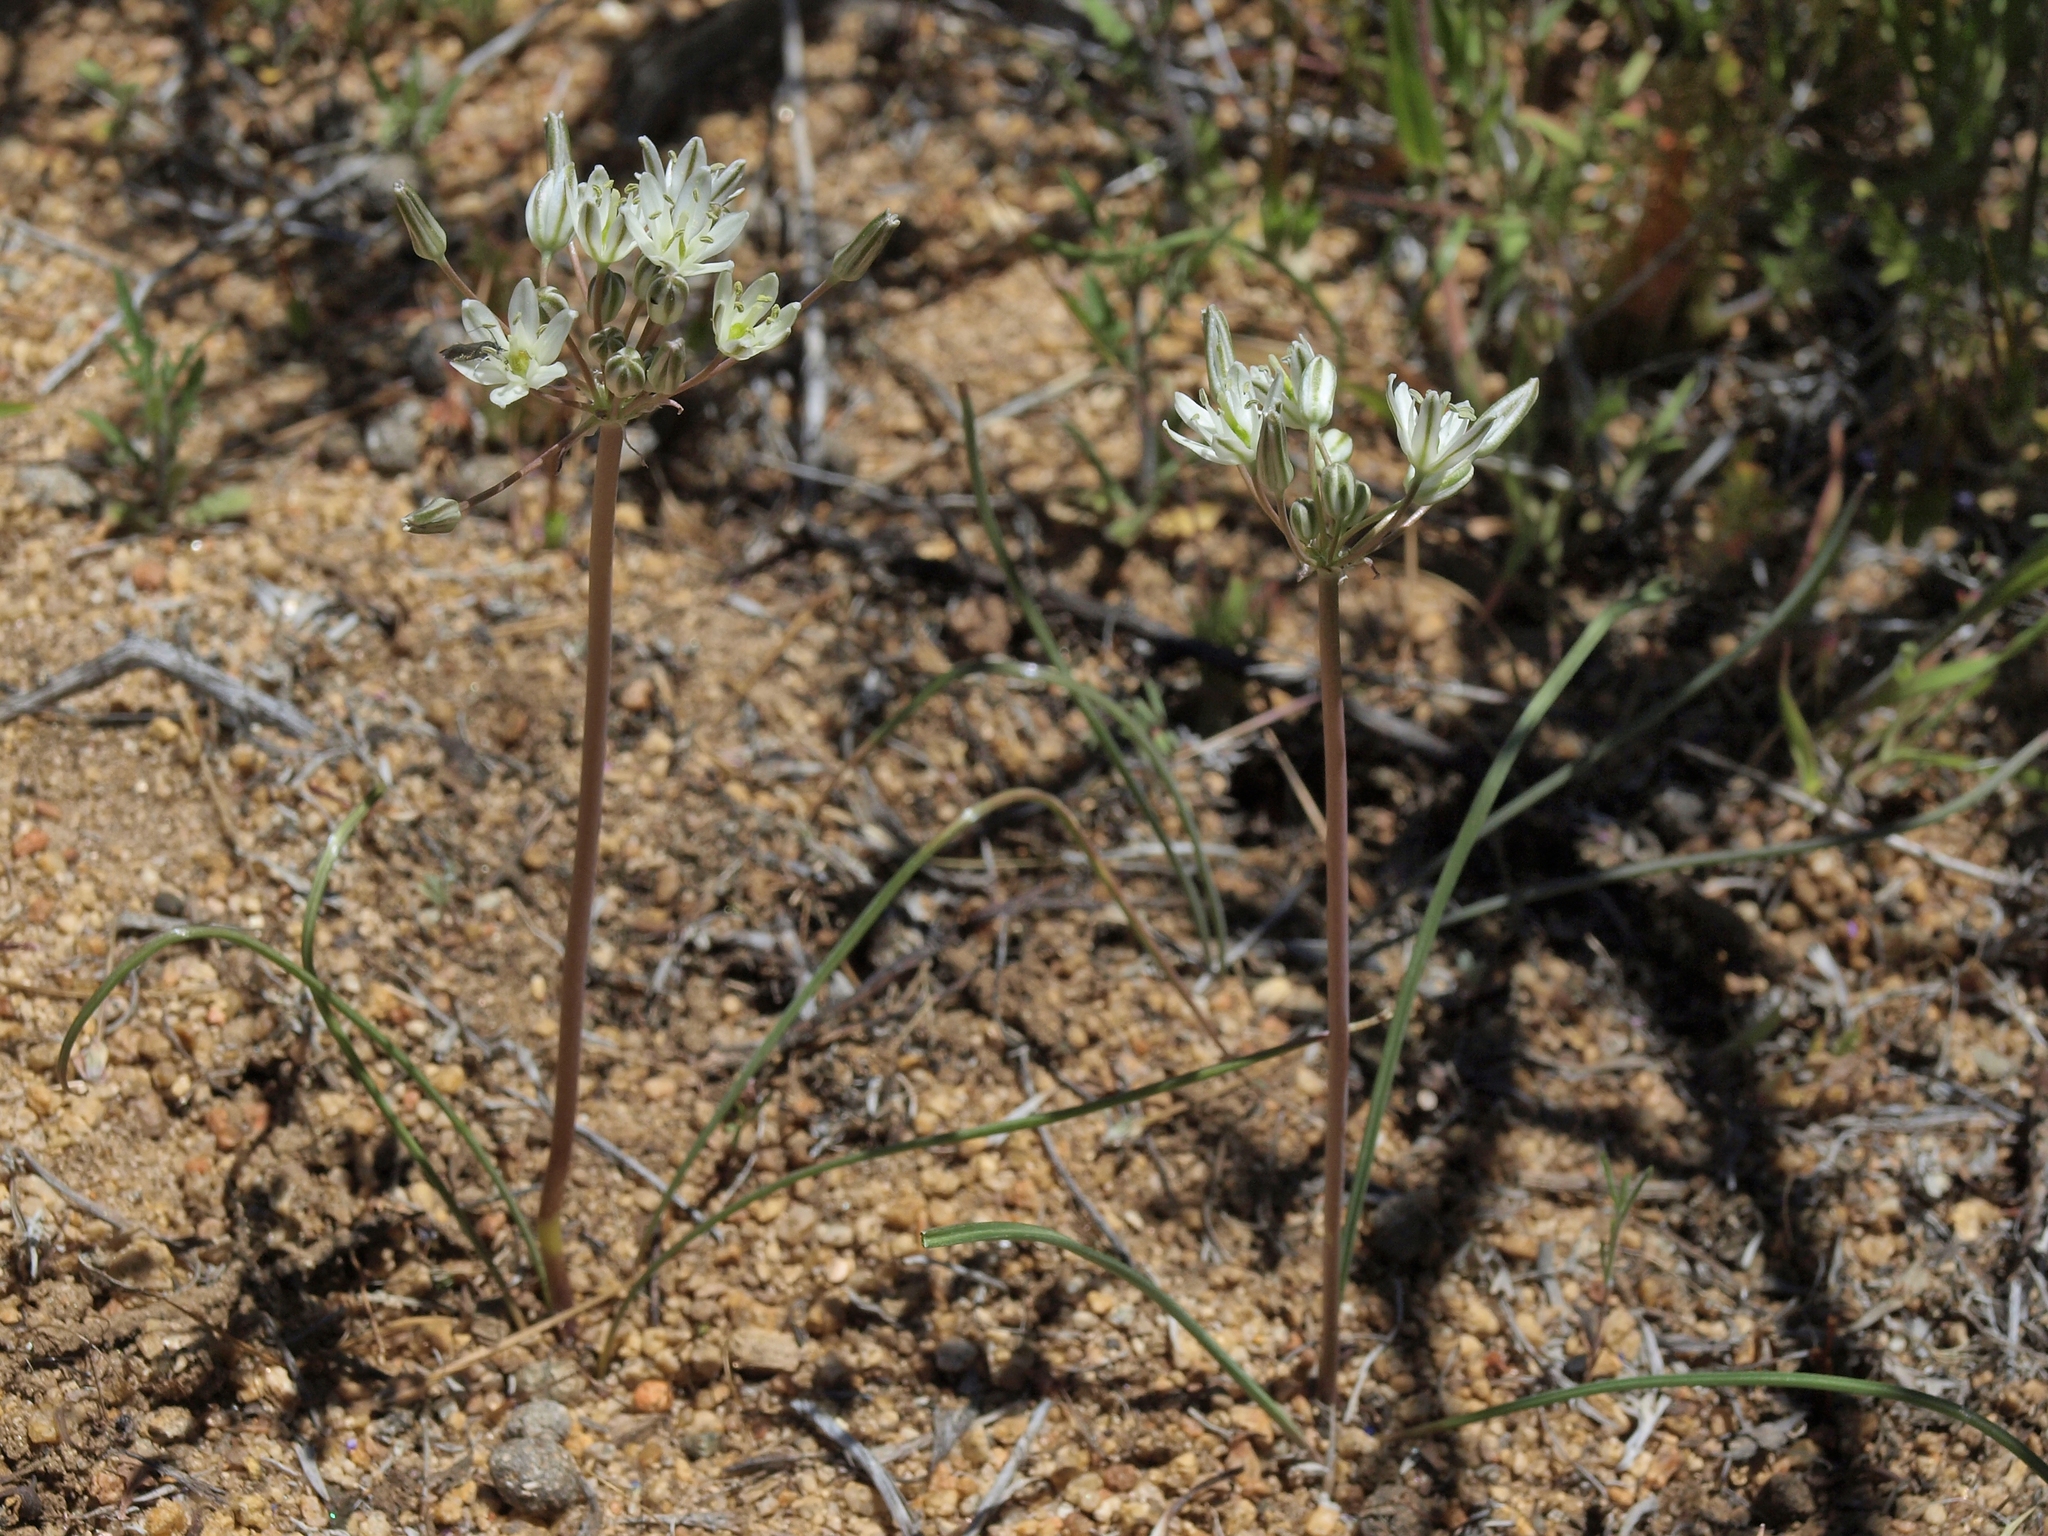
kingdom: Plantae
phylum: Tracheophyta
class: Liliopsida
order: Asparagales
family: Asparagaceae
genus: Muilla
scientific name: Muilla transmontana
